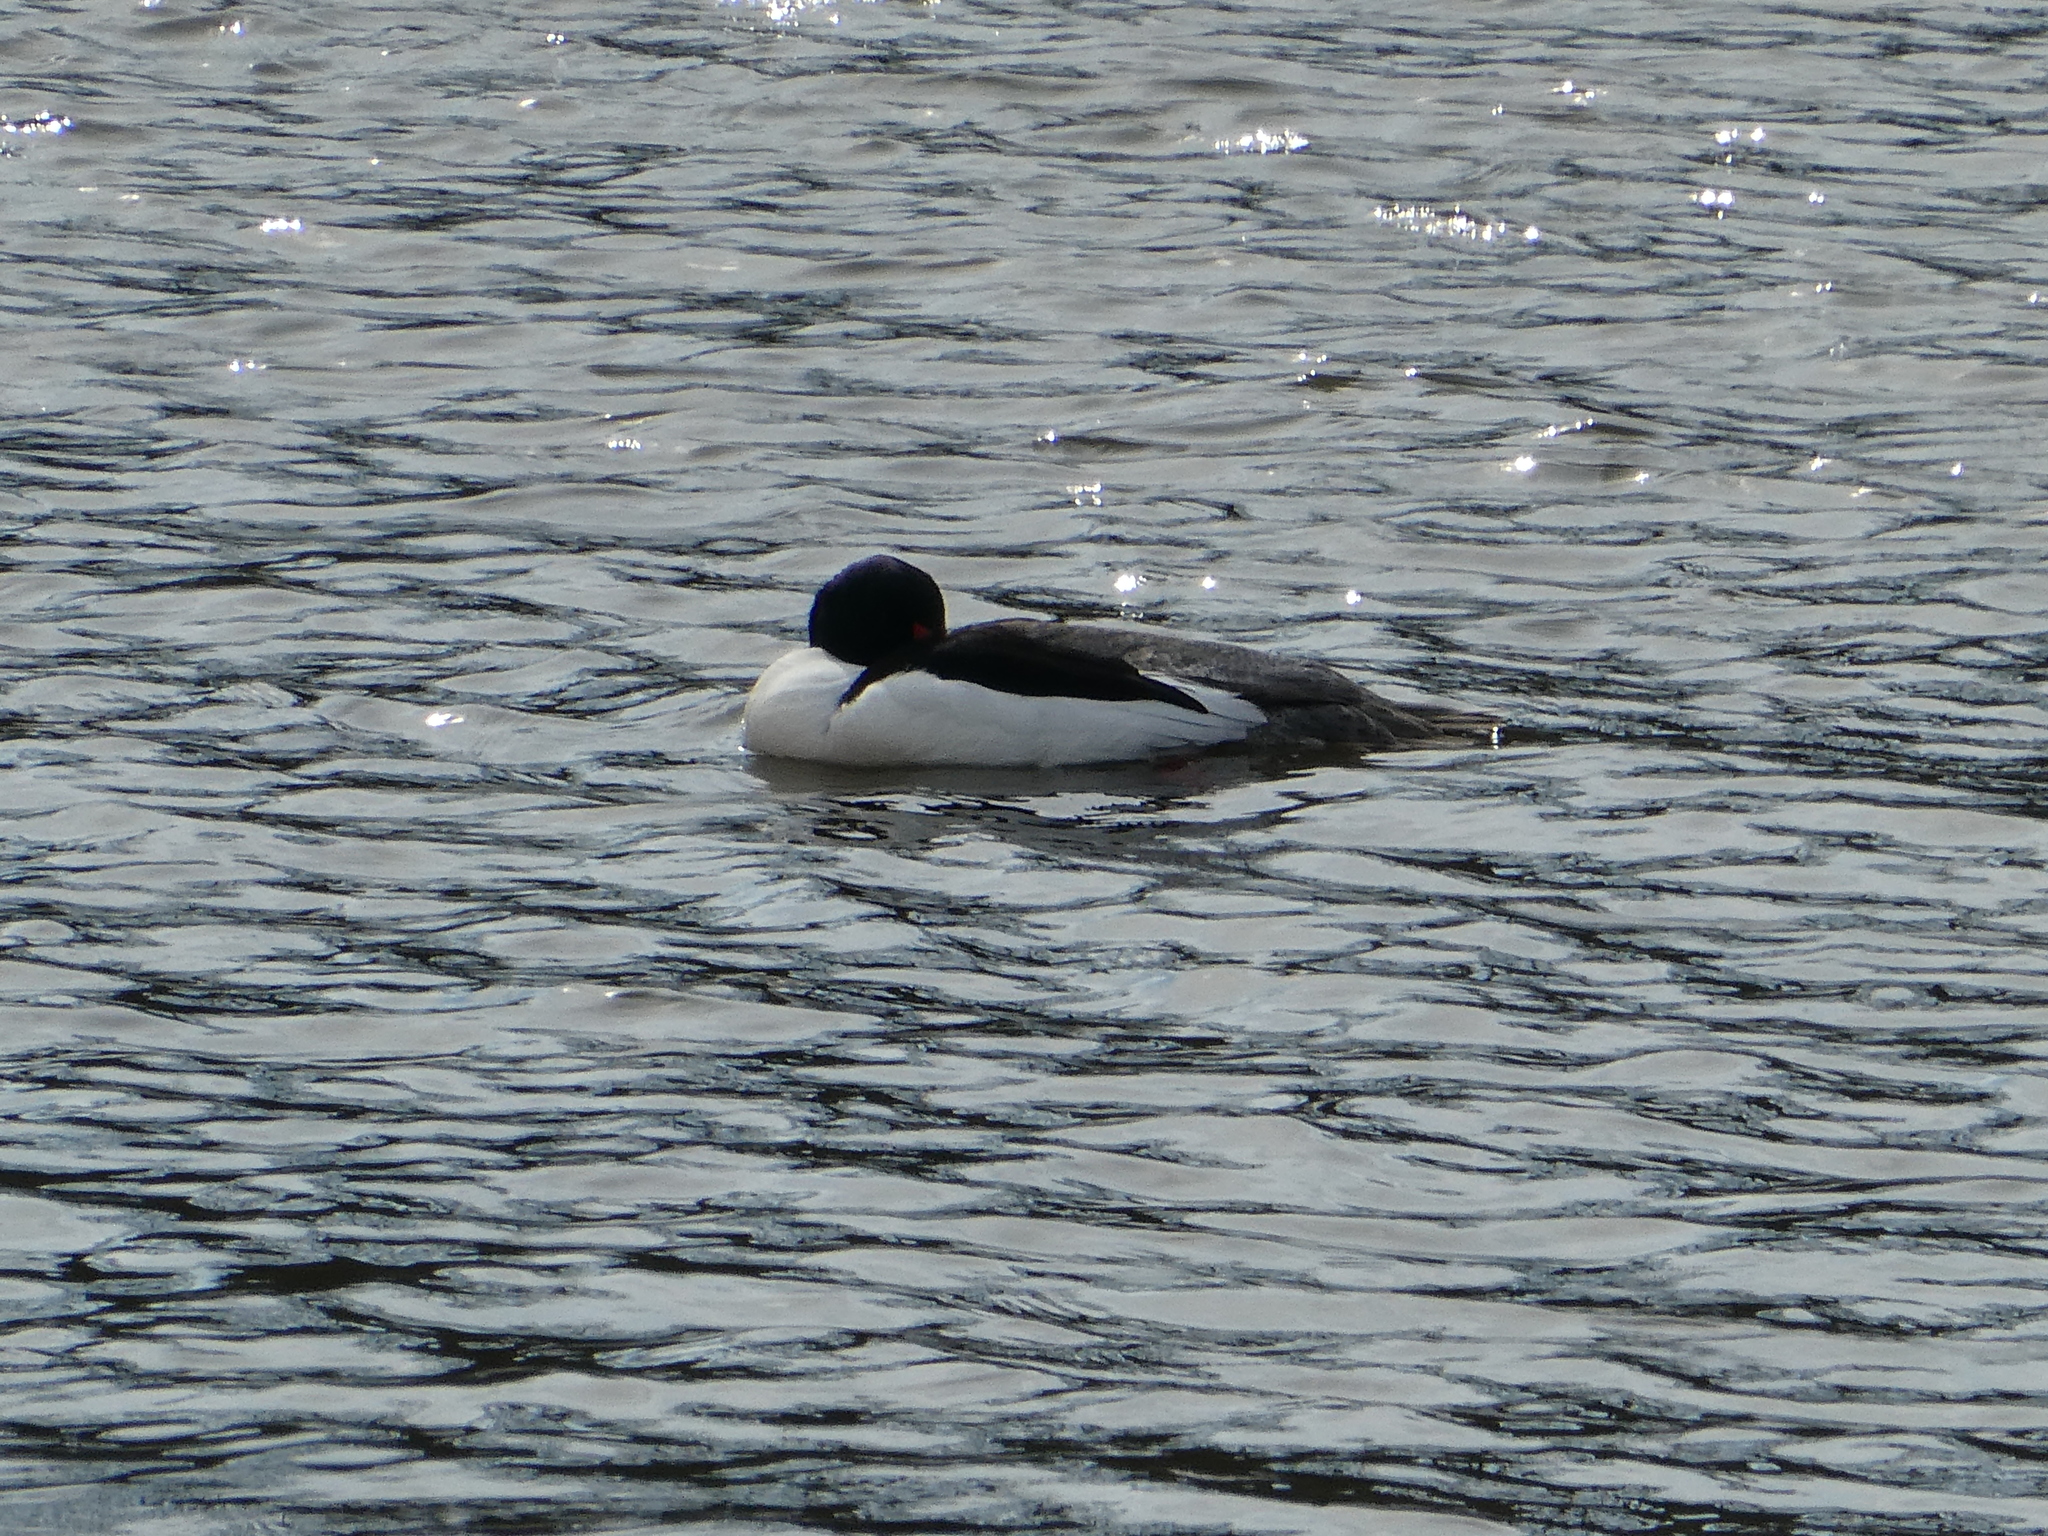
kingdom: Animalia
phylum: Chordata
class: Aves
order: Anseriformes
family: Anatidae
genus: Mergus
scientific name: Mergus merganser
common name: Common merganser
